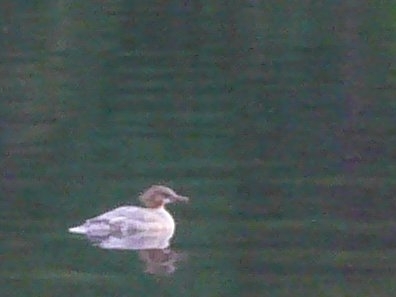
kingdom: Animalia
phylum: Chordata
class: Aves
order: Anseriformes
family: Anatidae
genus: Mergus
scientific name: Mergus merganser
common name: Common merganser
